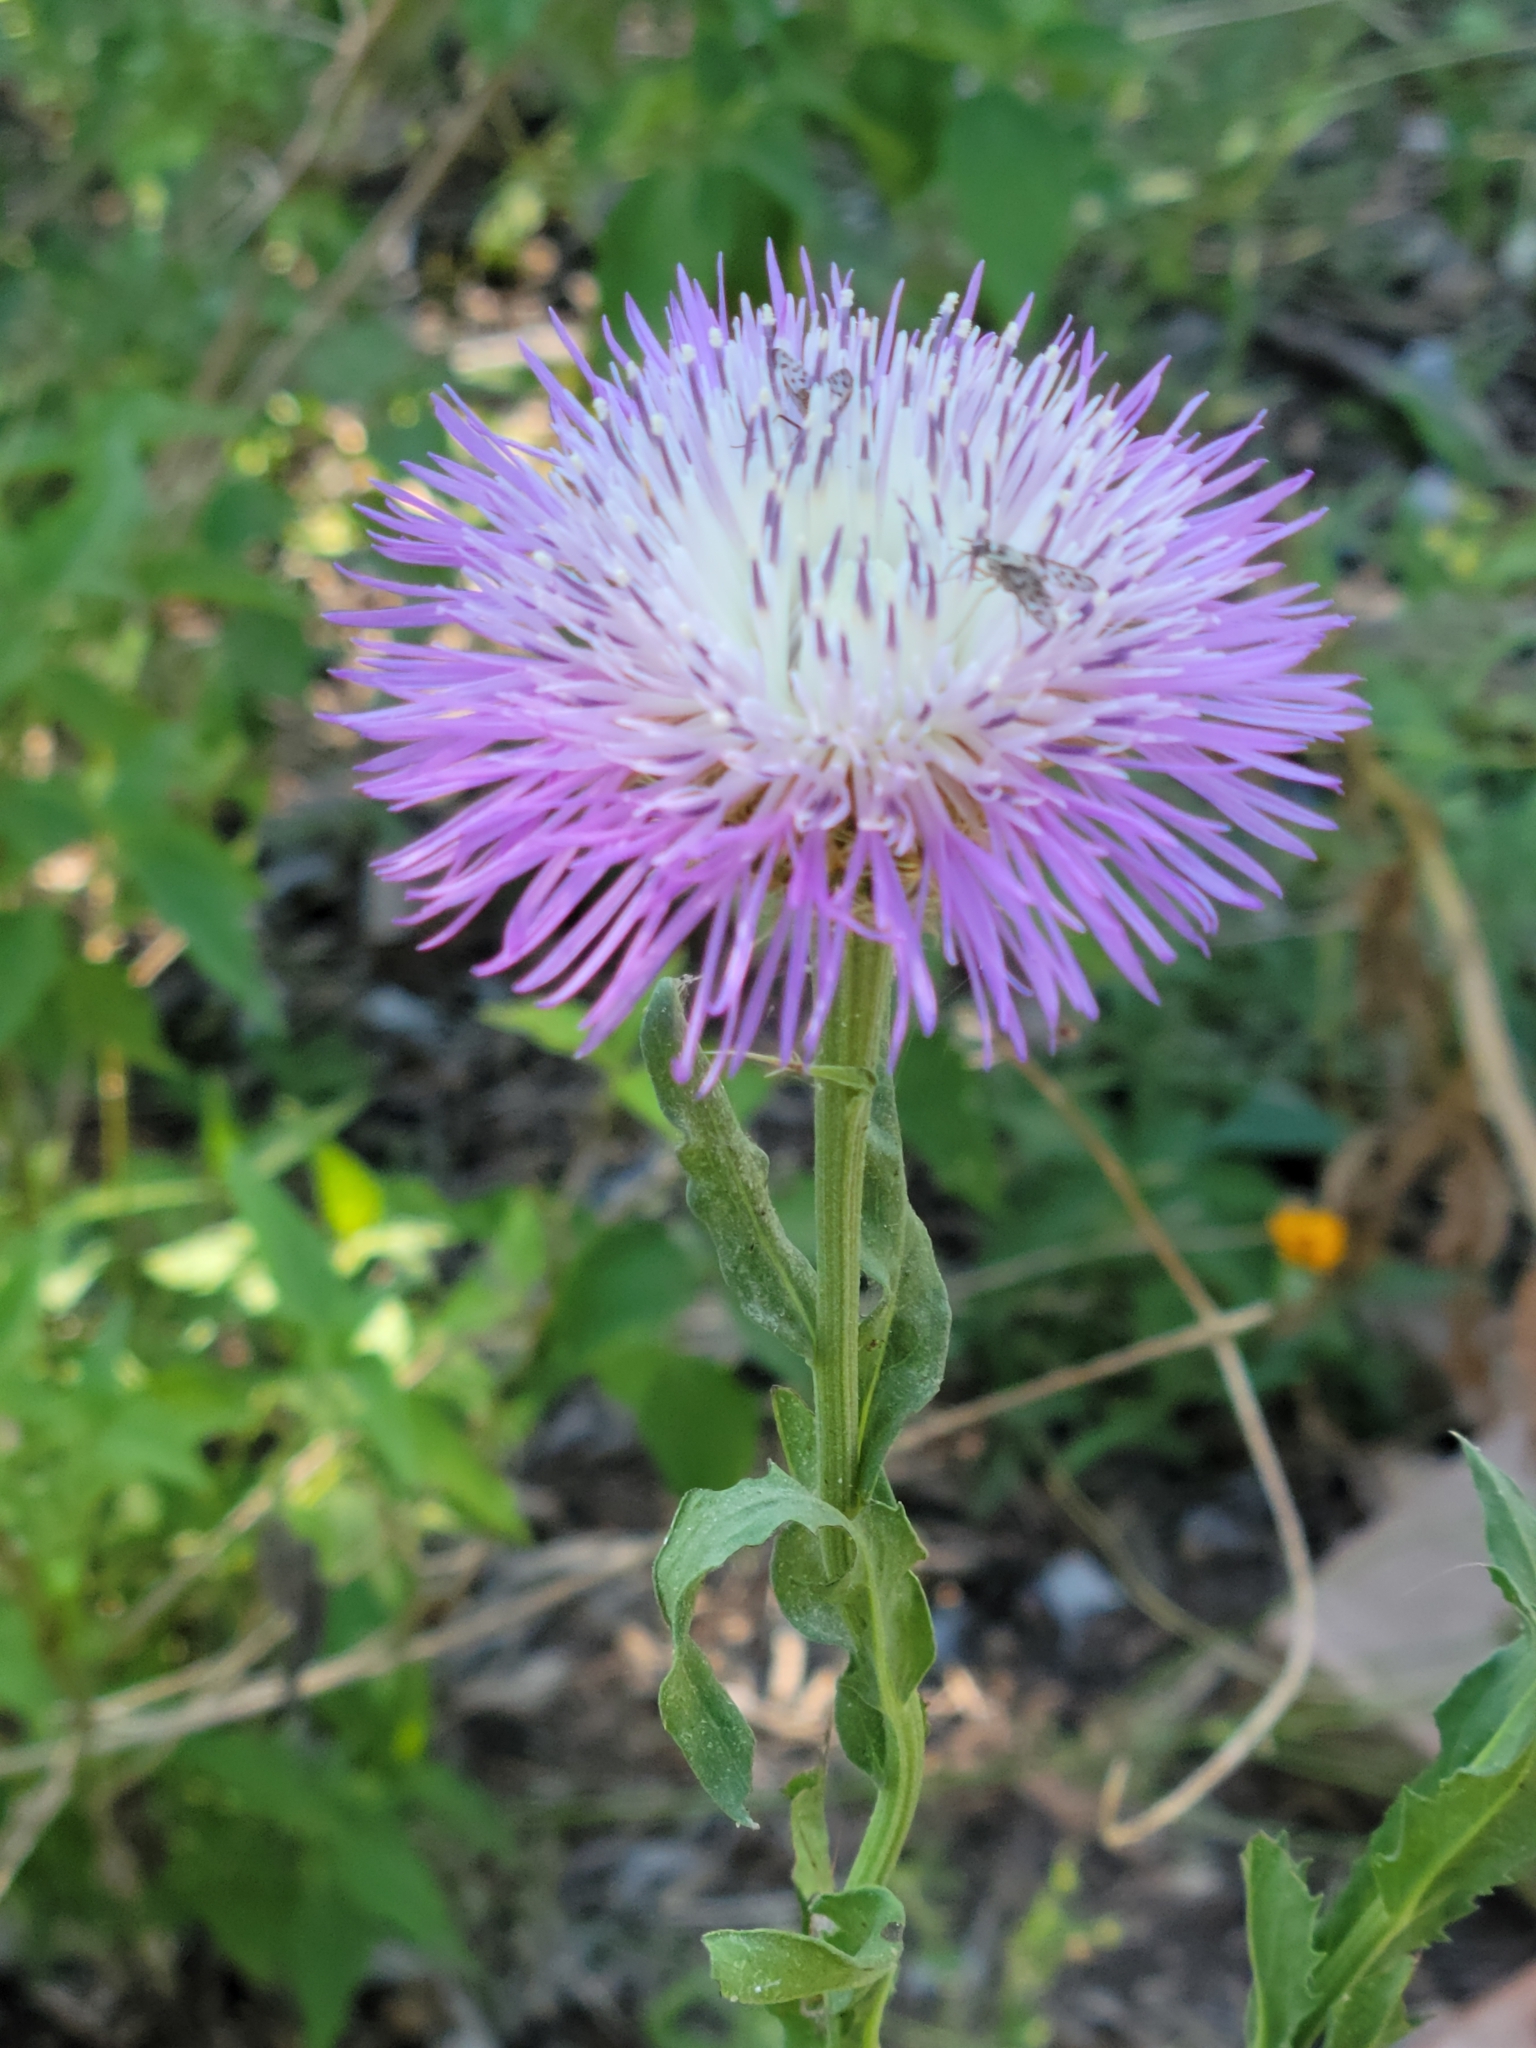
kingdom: Plantae
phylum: Tracheophyta
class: Magnoliopsida
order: Asterales
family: Asteraceae
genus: Plectocephalus
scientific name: Plectocephalus americanus
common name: American basket-flower
